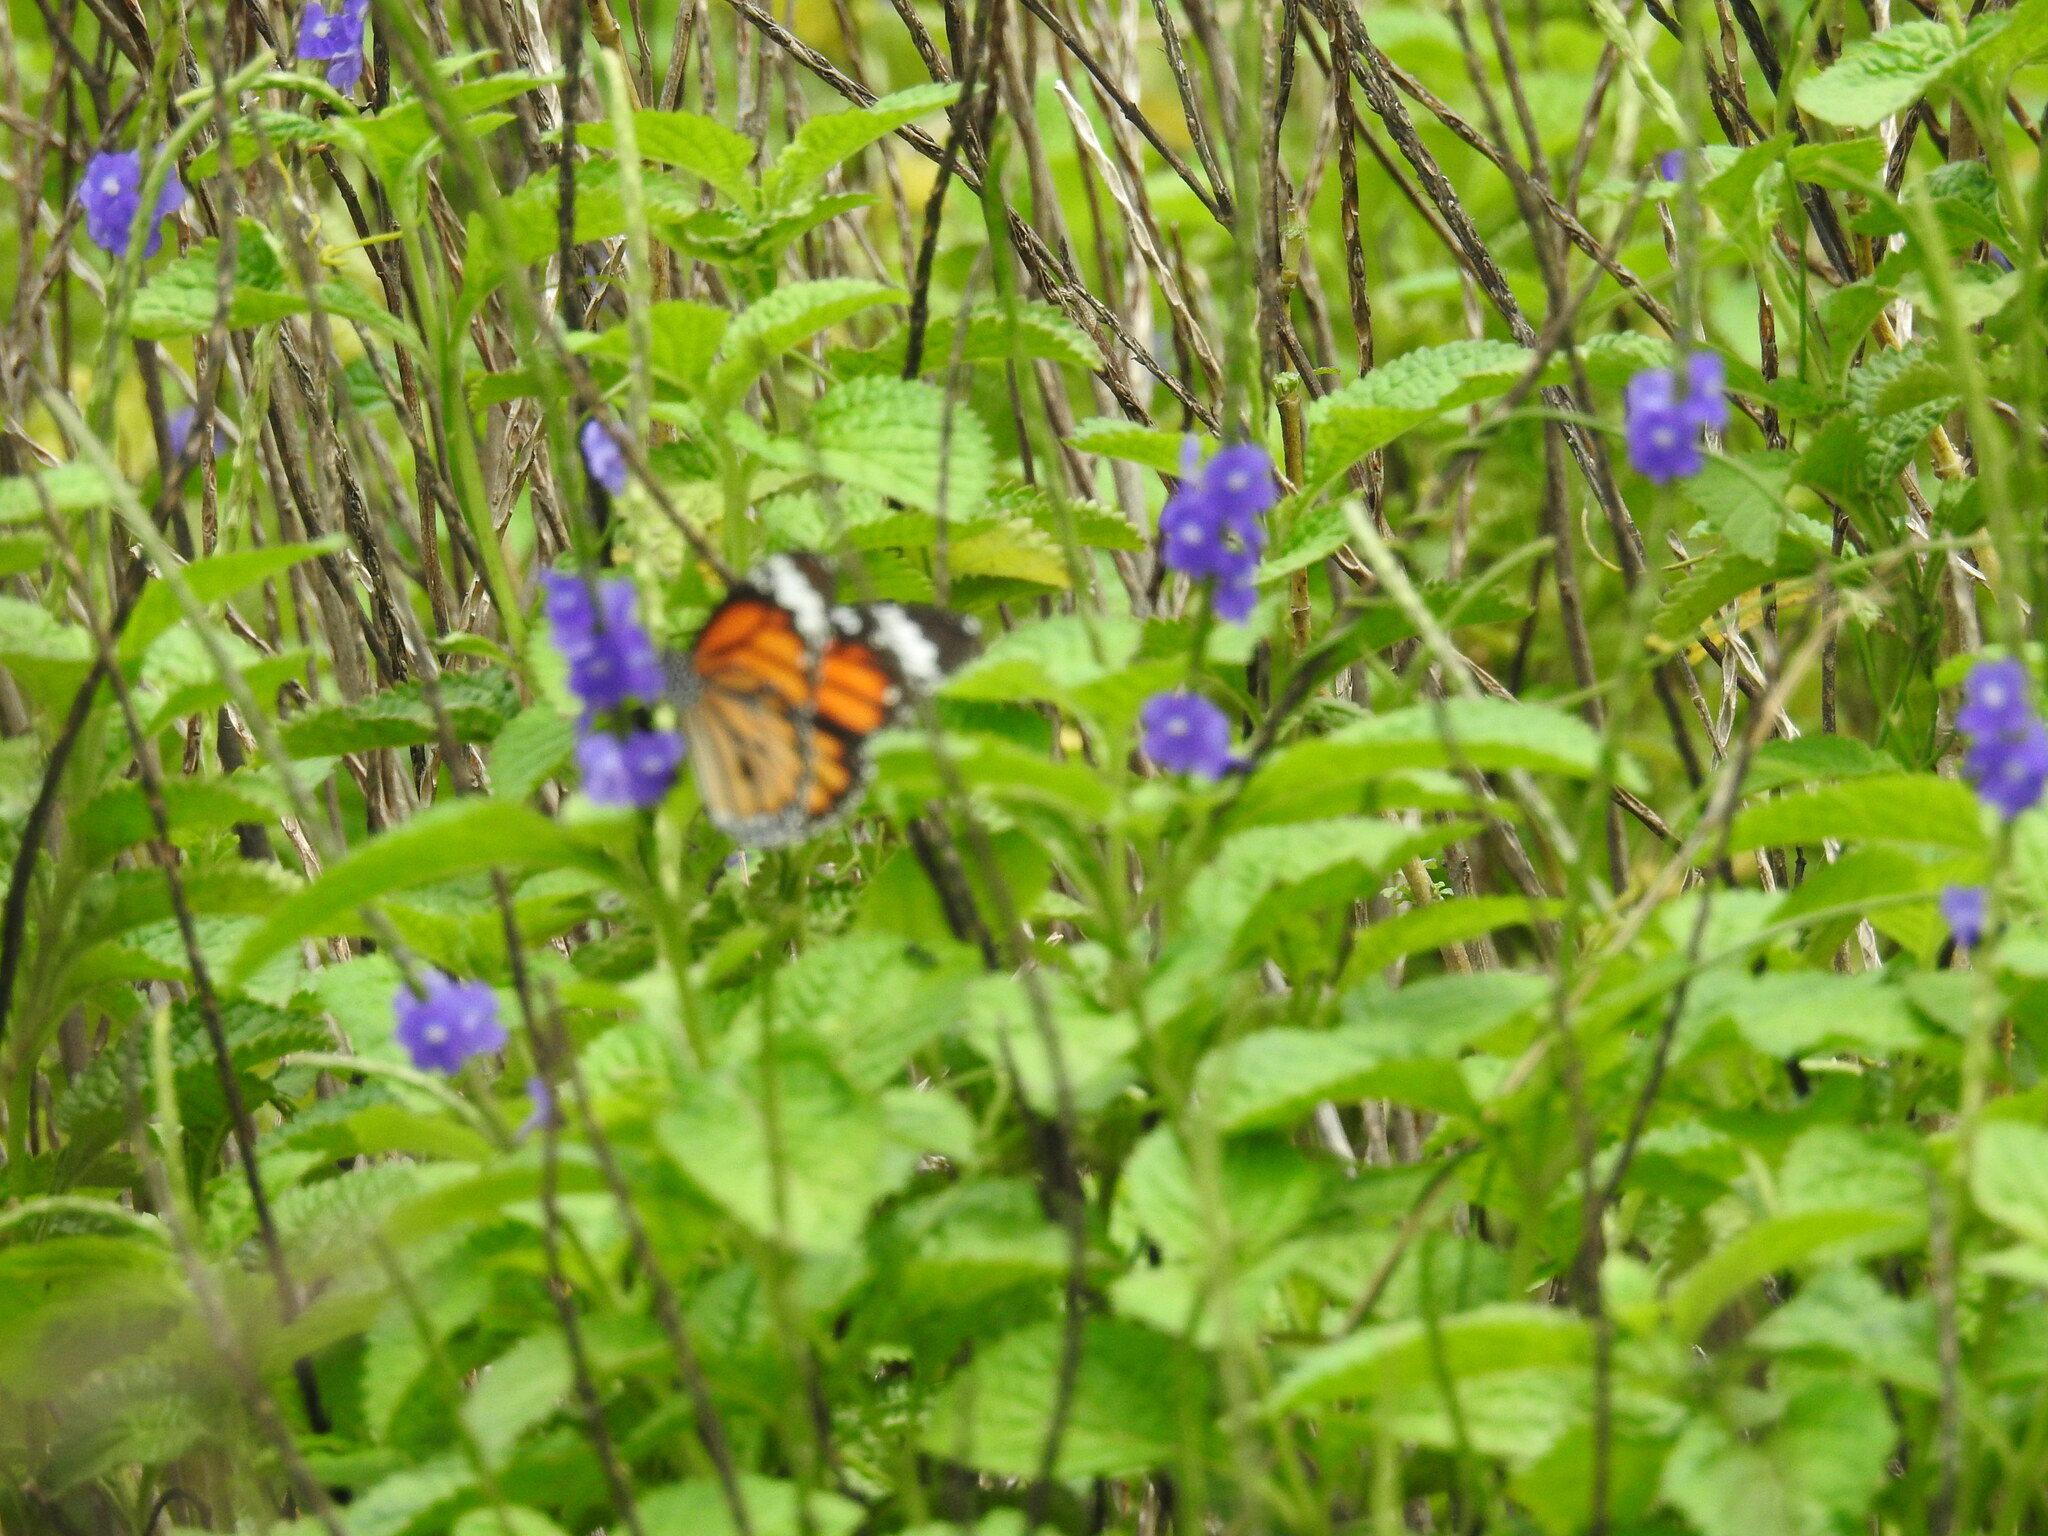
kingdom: Animalia
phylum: Arthropoda
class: Insecta
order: Lepidoptera
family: Nymphalidae
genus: Danaus
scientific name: Danaus chrysippus
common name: Plain tiger
